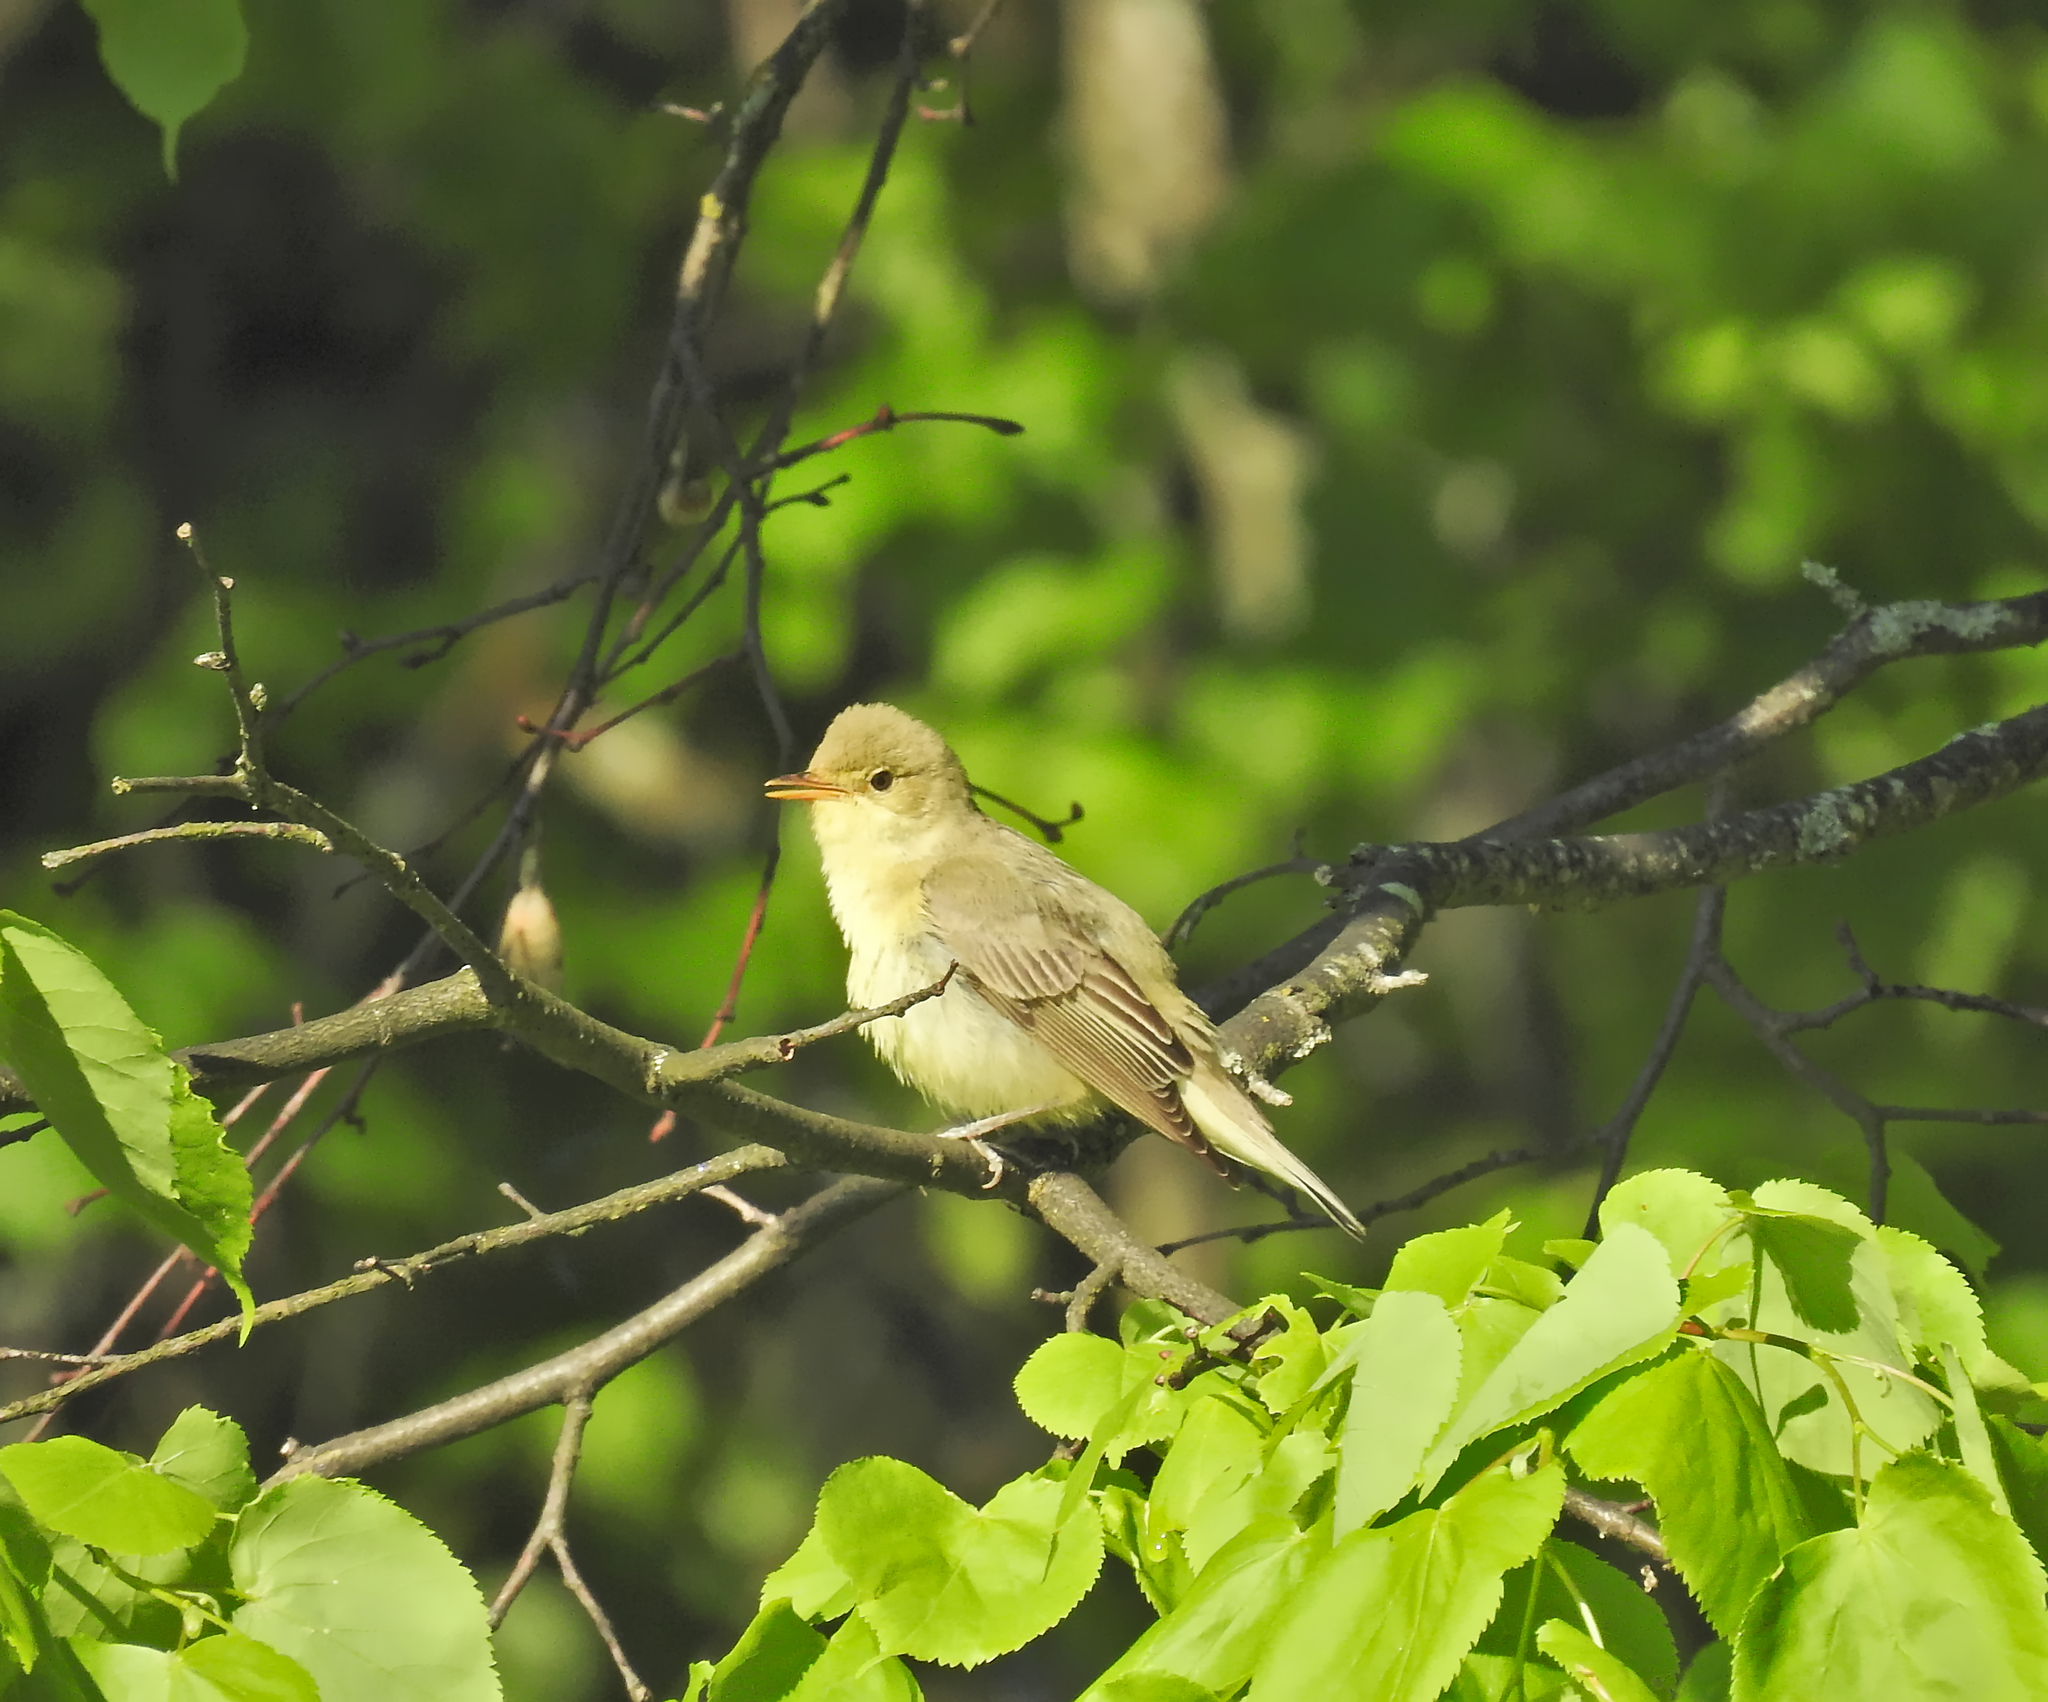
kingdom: Animalia
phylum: Chordata
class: Aves
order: Passeriformes
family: Acrocephalidae
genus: Hippolais
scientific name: Hippolais icterina
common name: Icterine warbler
